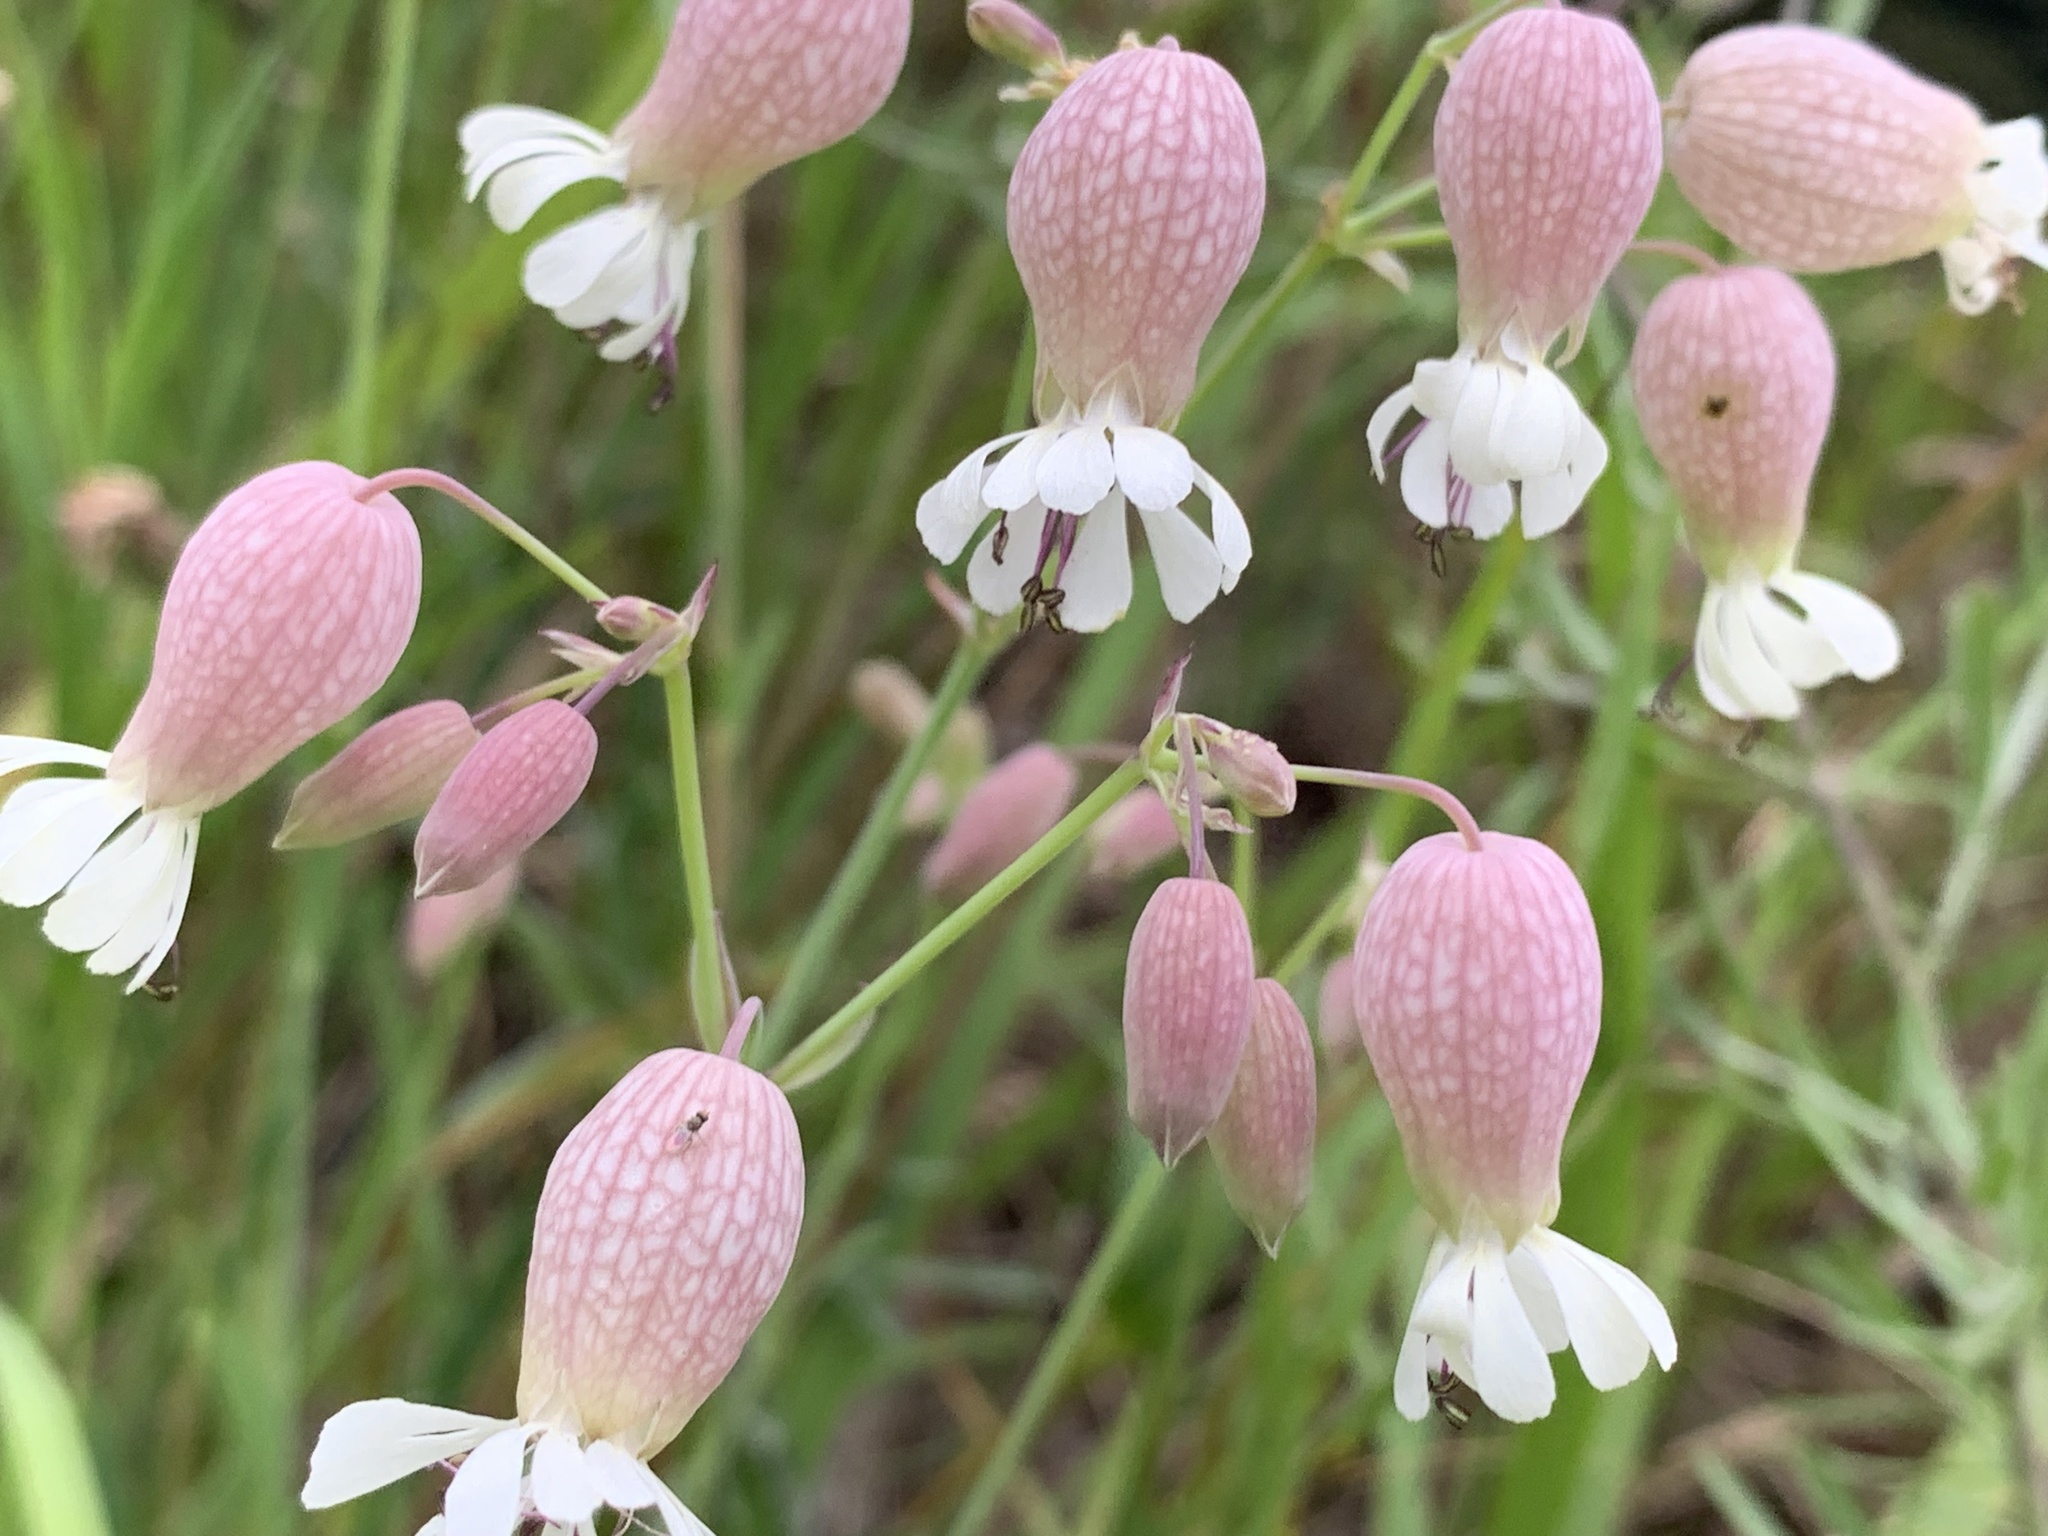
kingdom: Plantae
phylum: Tracheophyta
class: Magnoliopsida
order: Caryophyllales
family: Caryophyllaceae
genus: Silene
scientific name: Silene vulgaris
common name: Bladder campion
